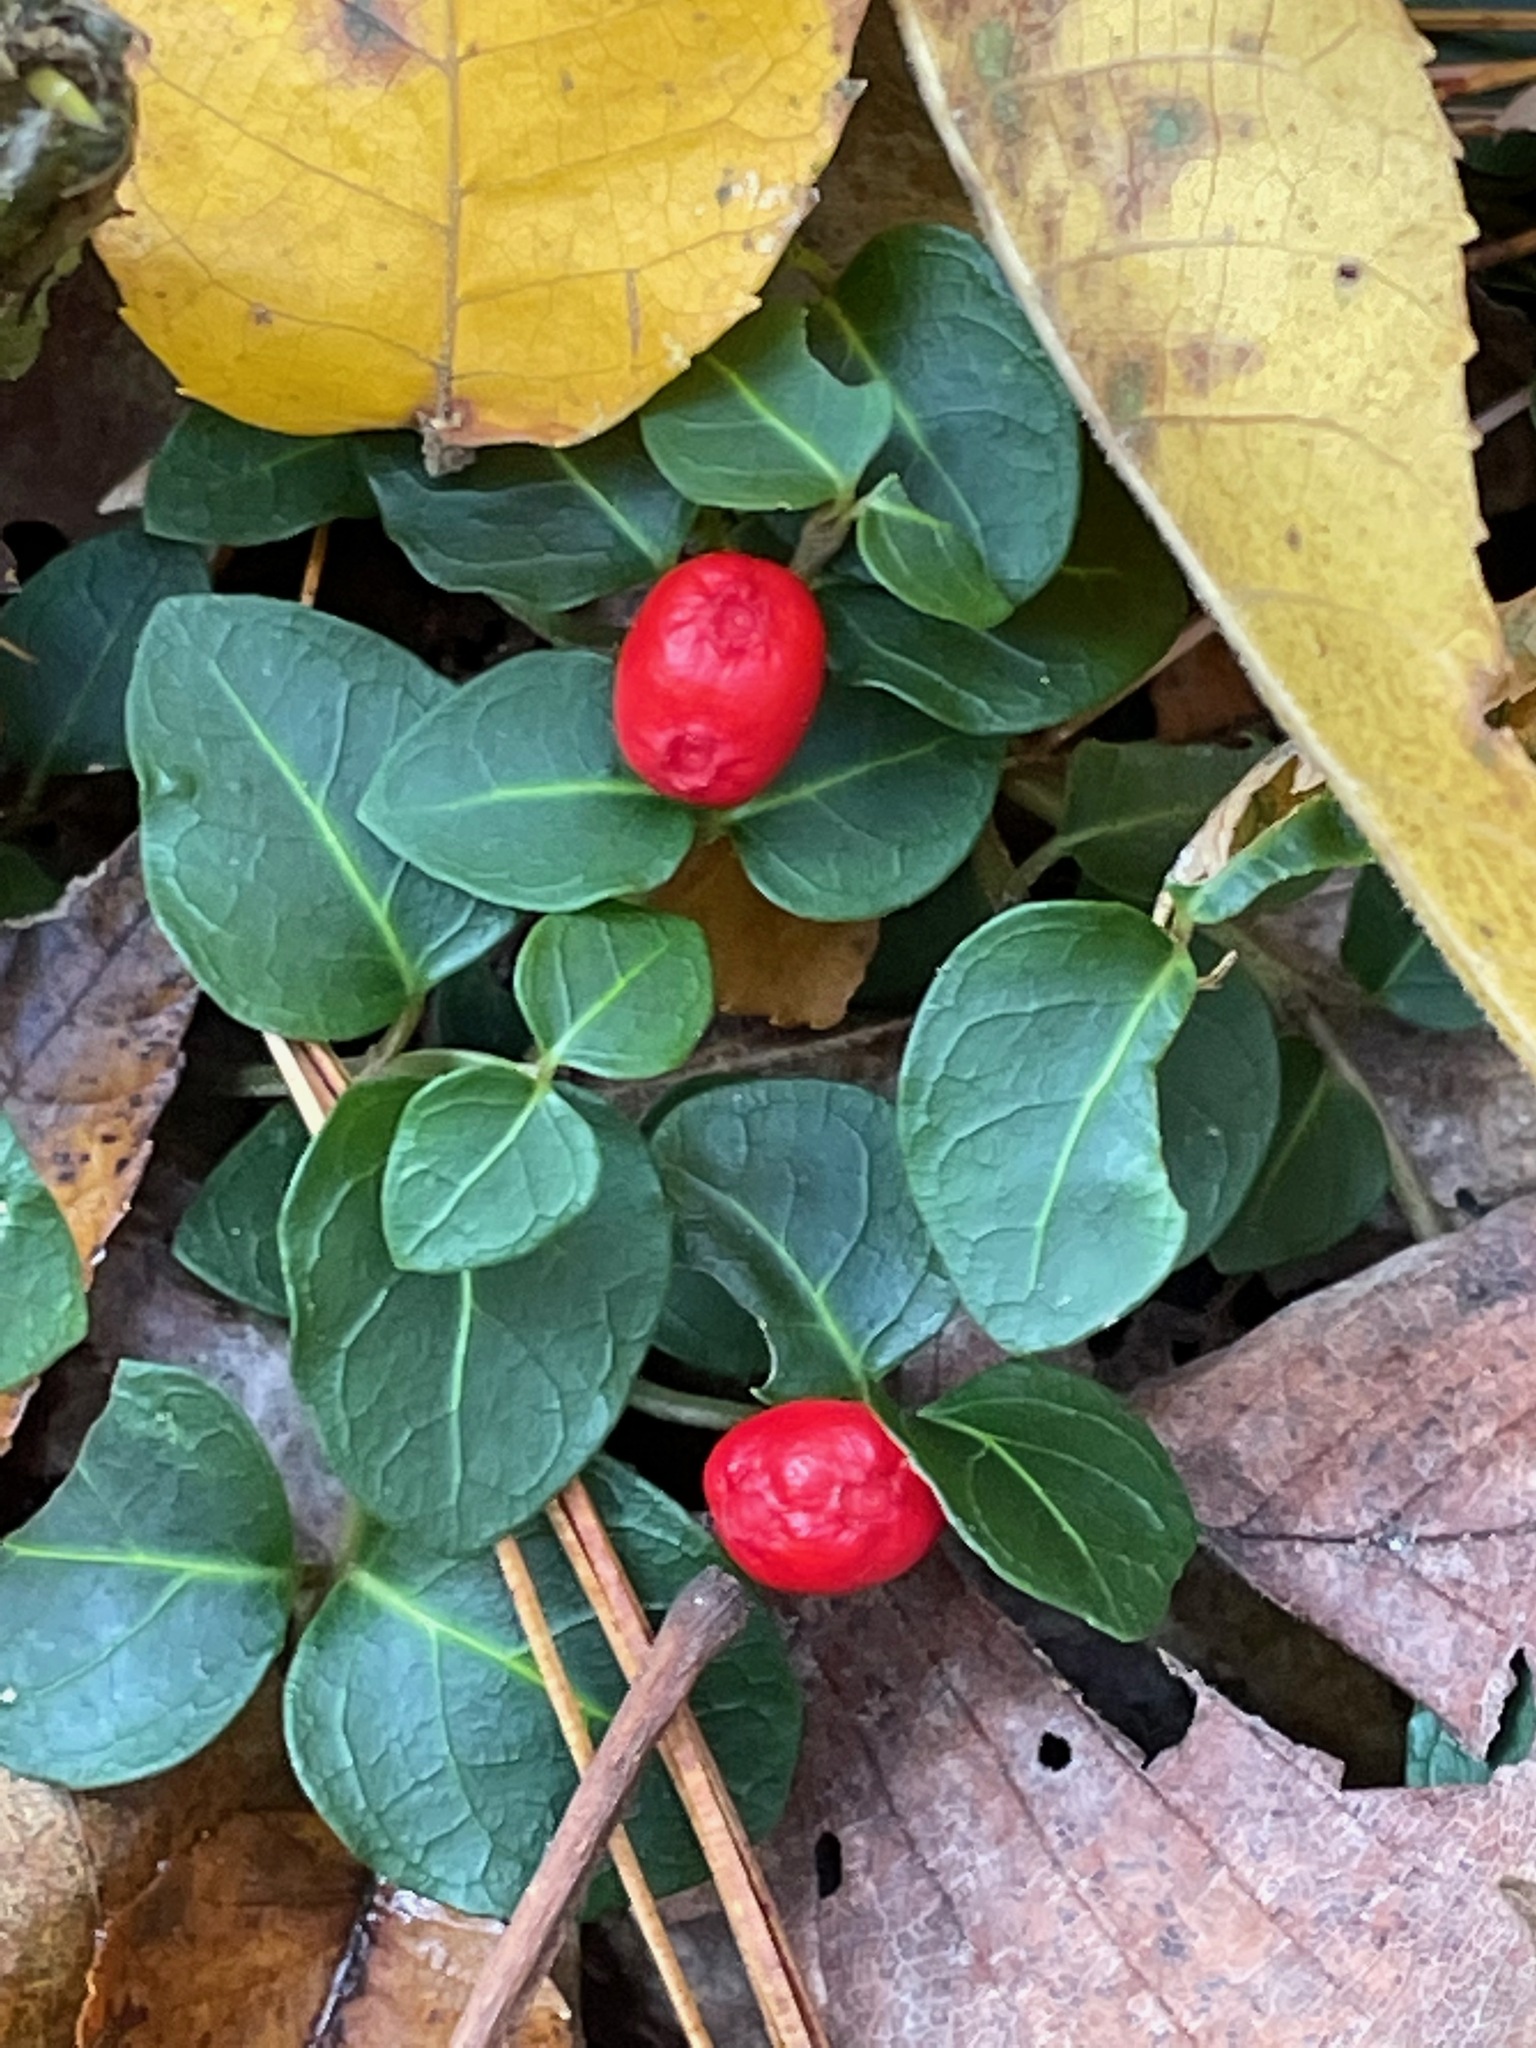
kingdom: Plantae
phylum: Tracheophyta
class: Magnoliopsida
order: Gentianales
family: Rubiaceae
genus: Mitchella
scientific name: Mitchella repens
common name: Partridge-berry
